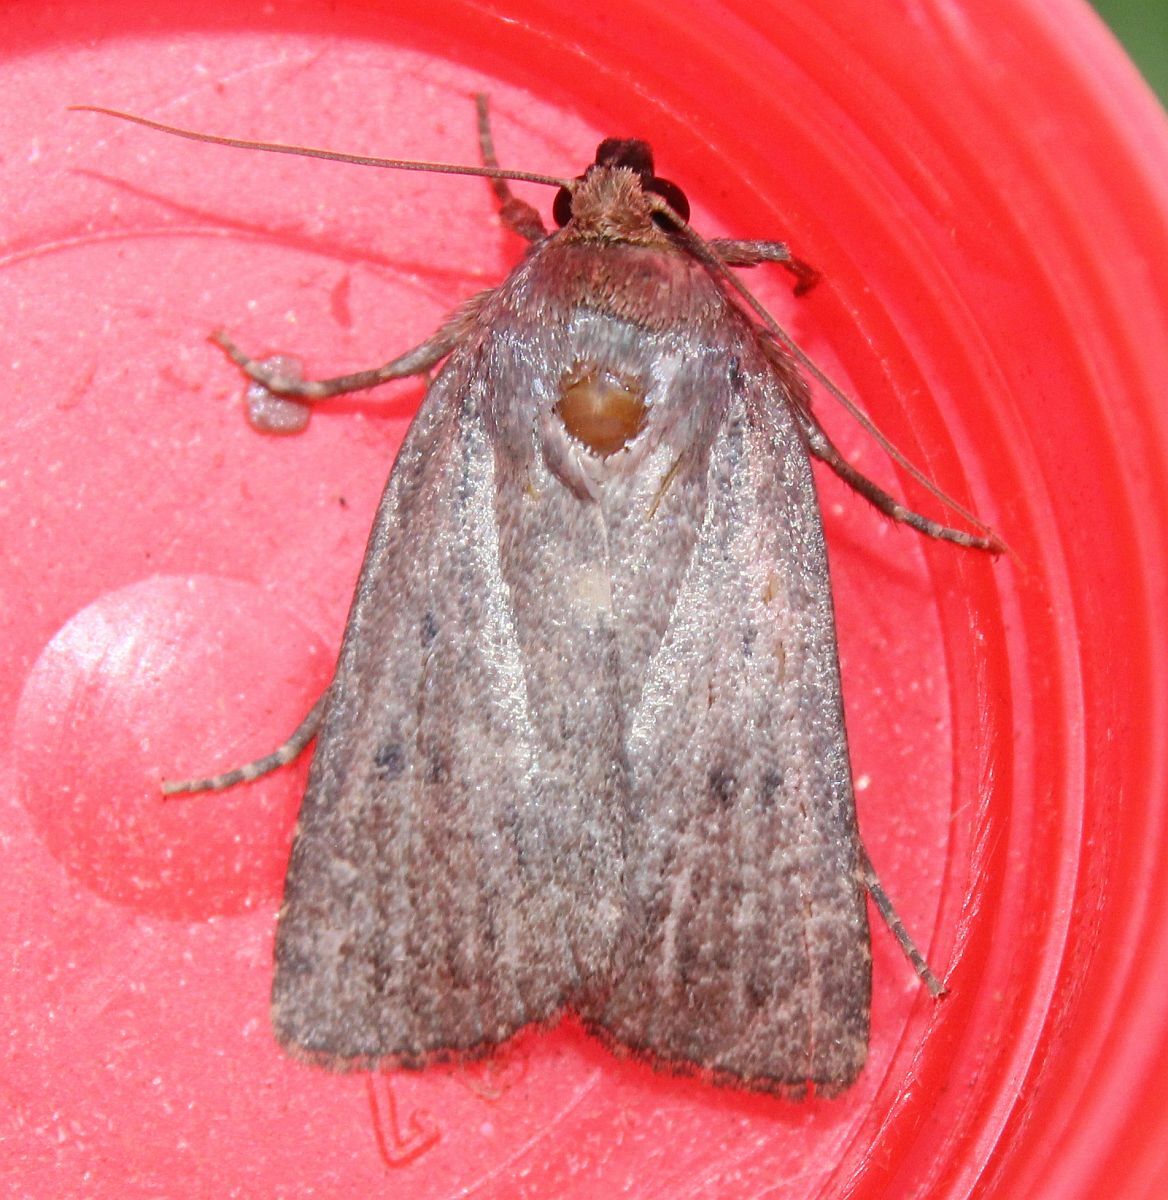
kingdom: Animalia
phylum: Arthropoda
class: Insecta
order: Lepidoptera
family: Noctuidae
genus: Amphipyra
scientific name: Amphipyra tragopoginis
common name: Mouse moth
